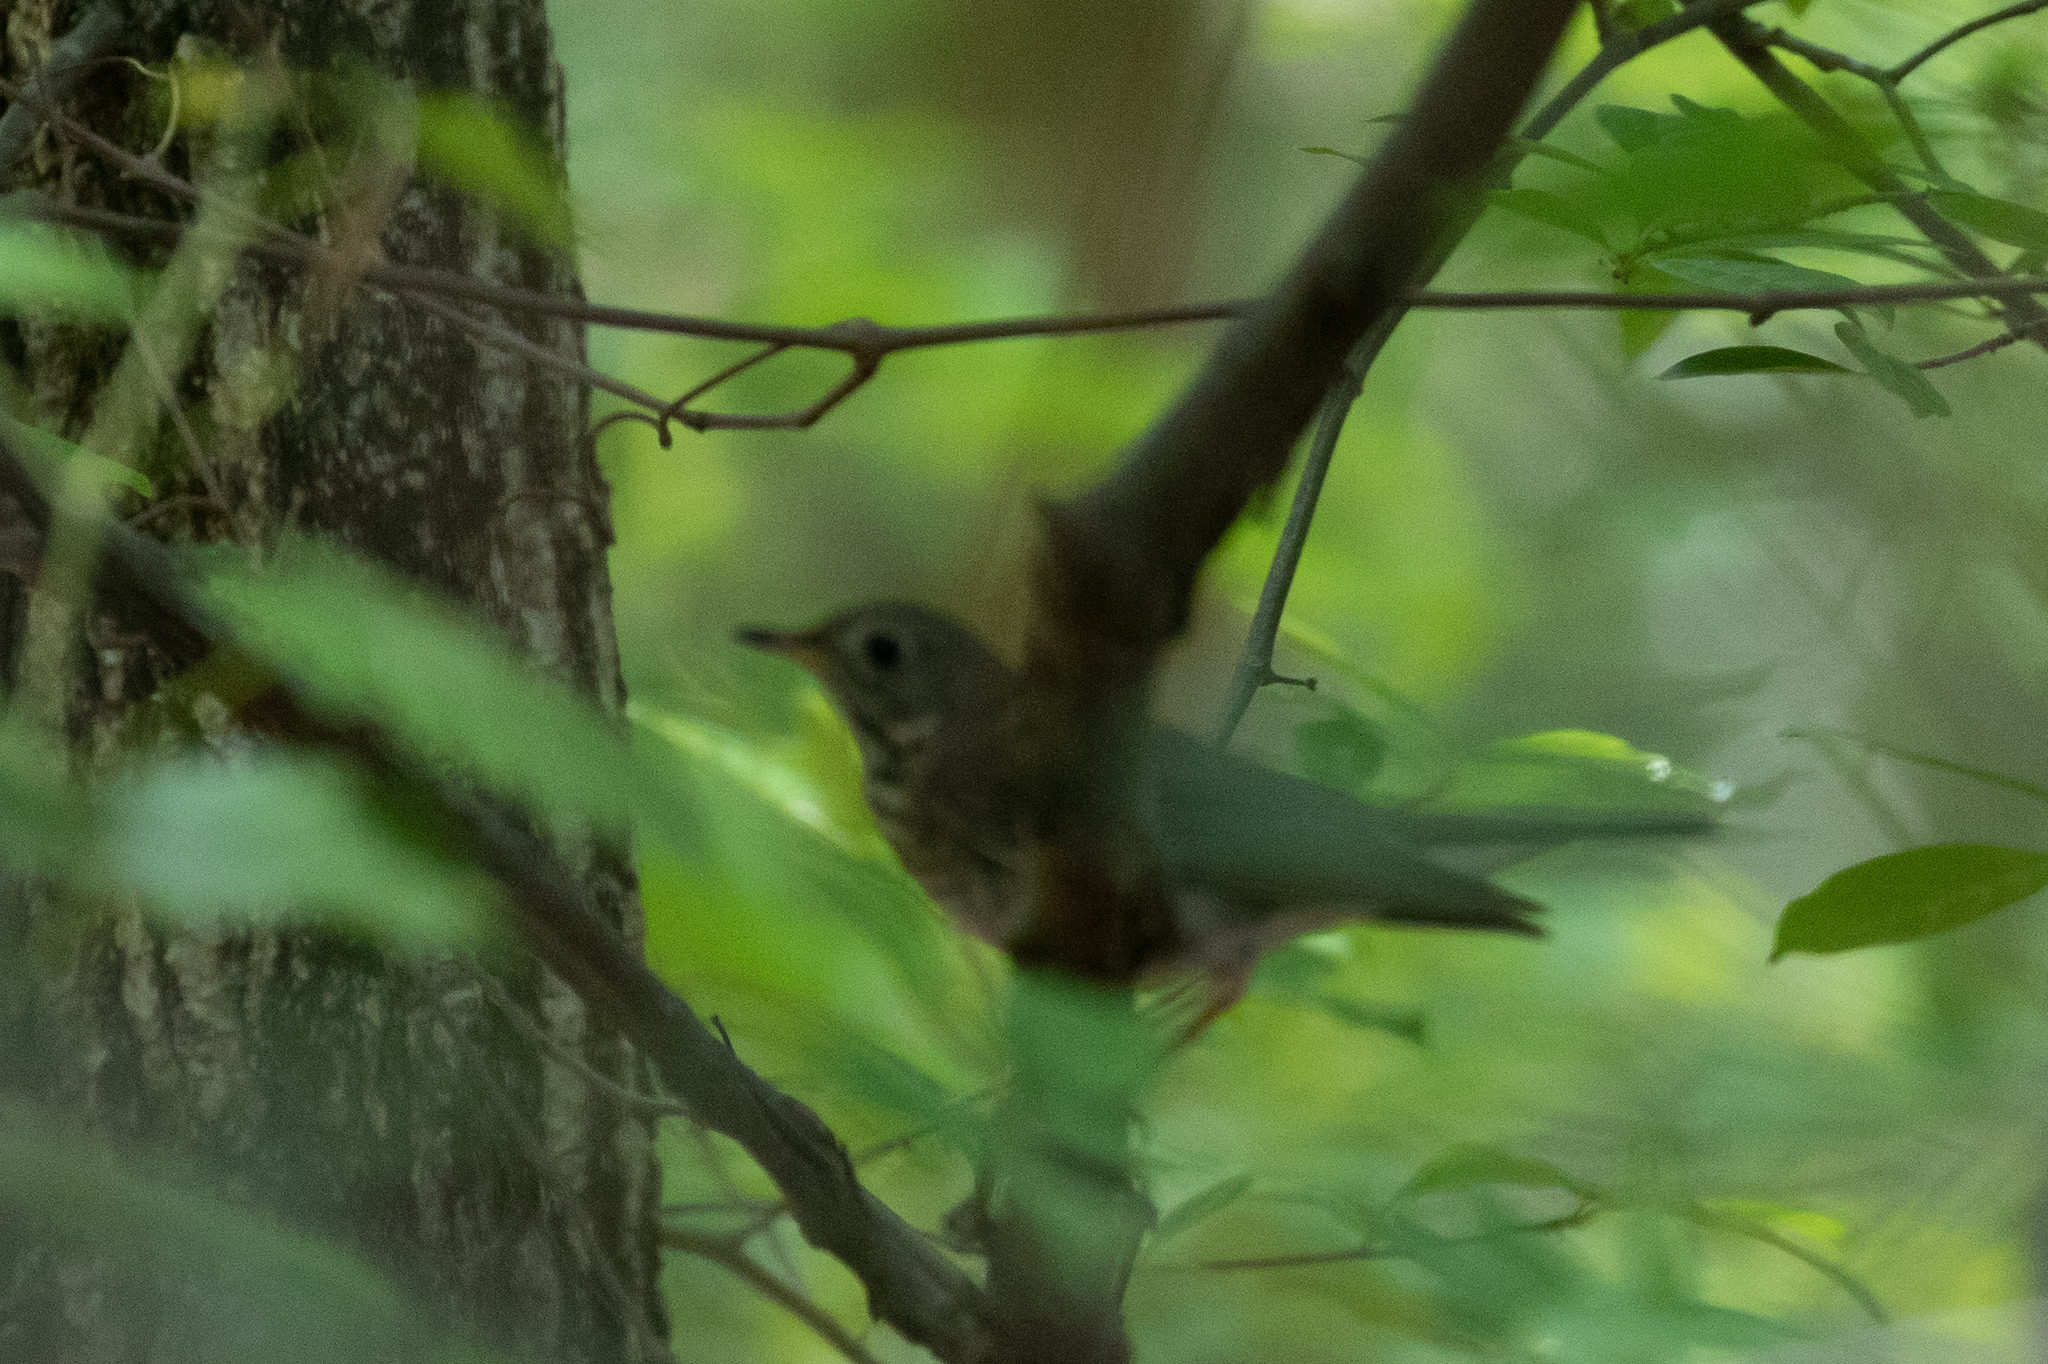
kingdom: Animalia
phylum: Chordata
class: Aves
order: Passeriformes
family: Turdidae
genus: Catharus
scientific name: Catharus ustulatus
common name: Swainson's thrush
